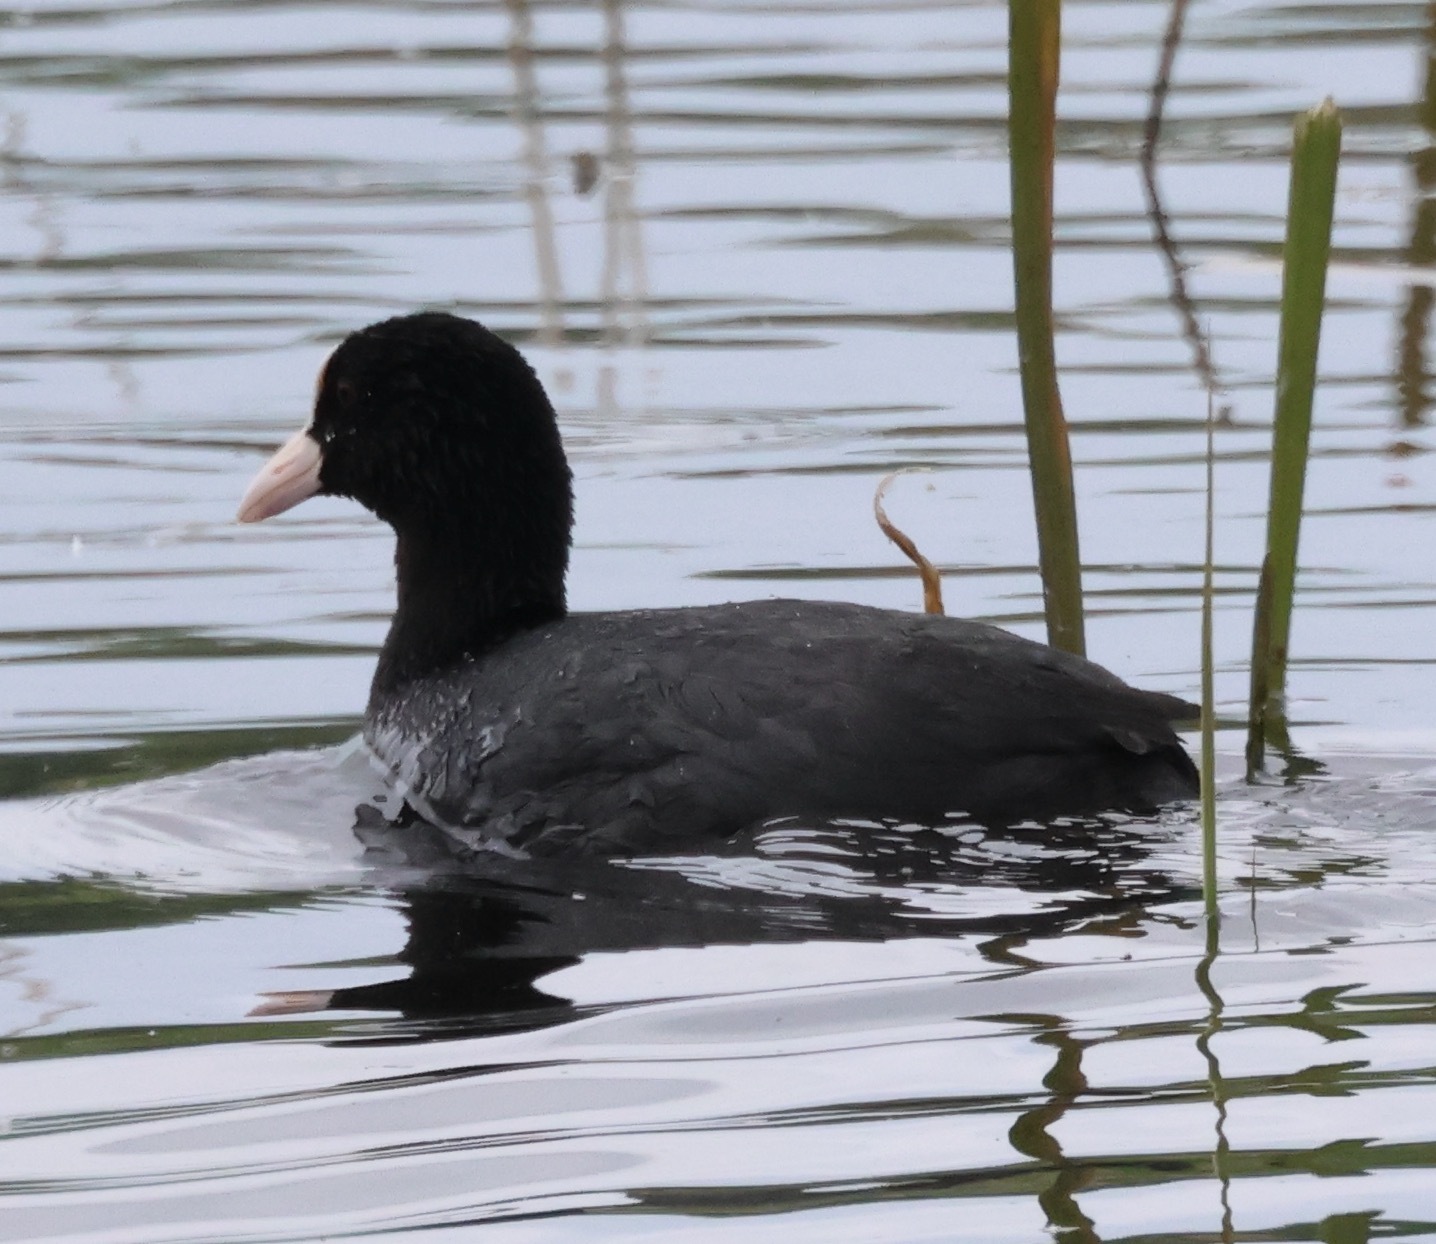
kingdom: Animalia
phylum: Chordata
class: Aves
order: Gruiformes
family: Rallidae
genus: Fulica
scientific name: Fulica atra
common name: Eurasian coot
